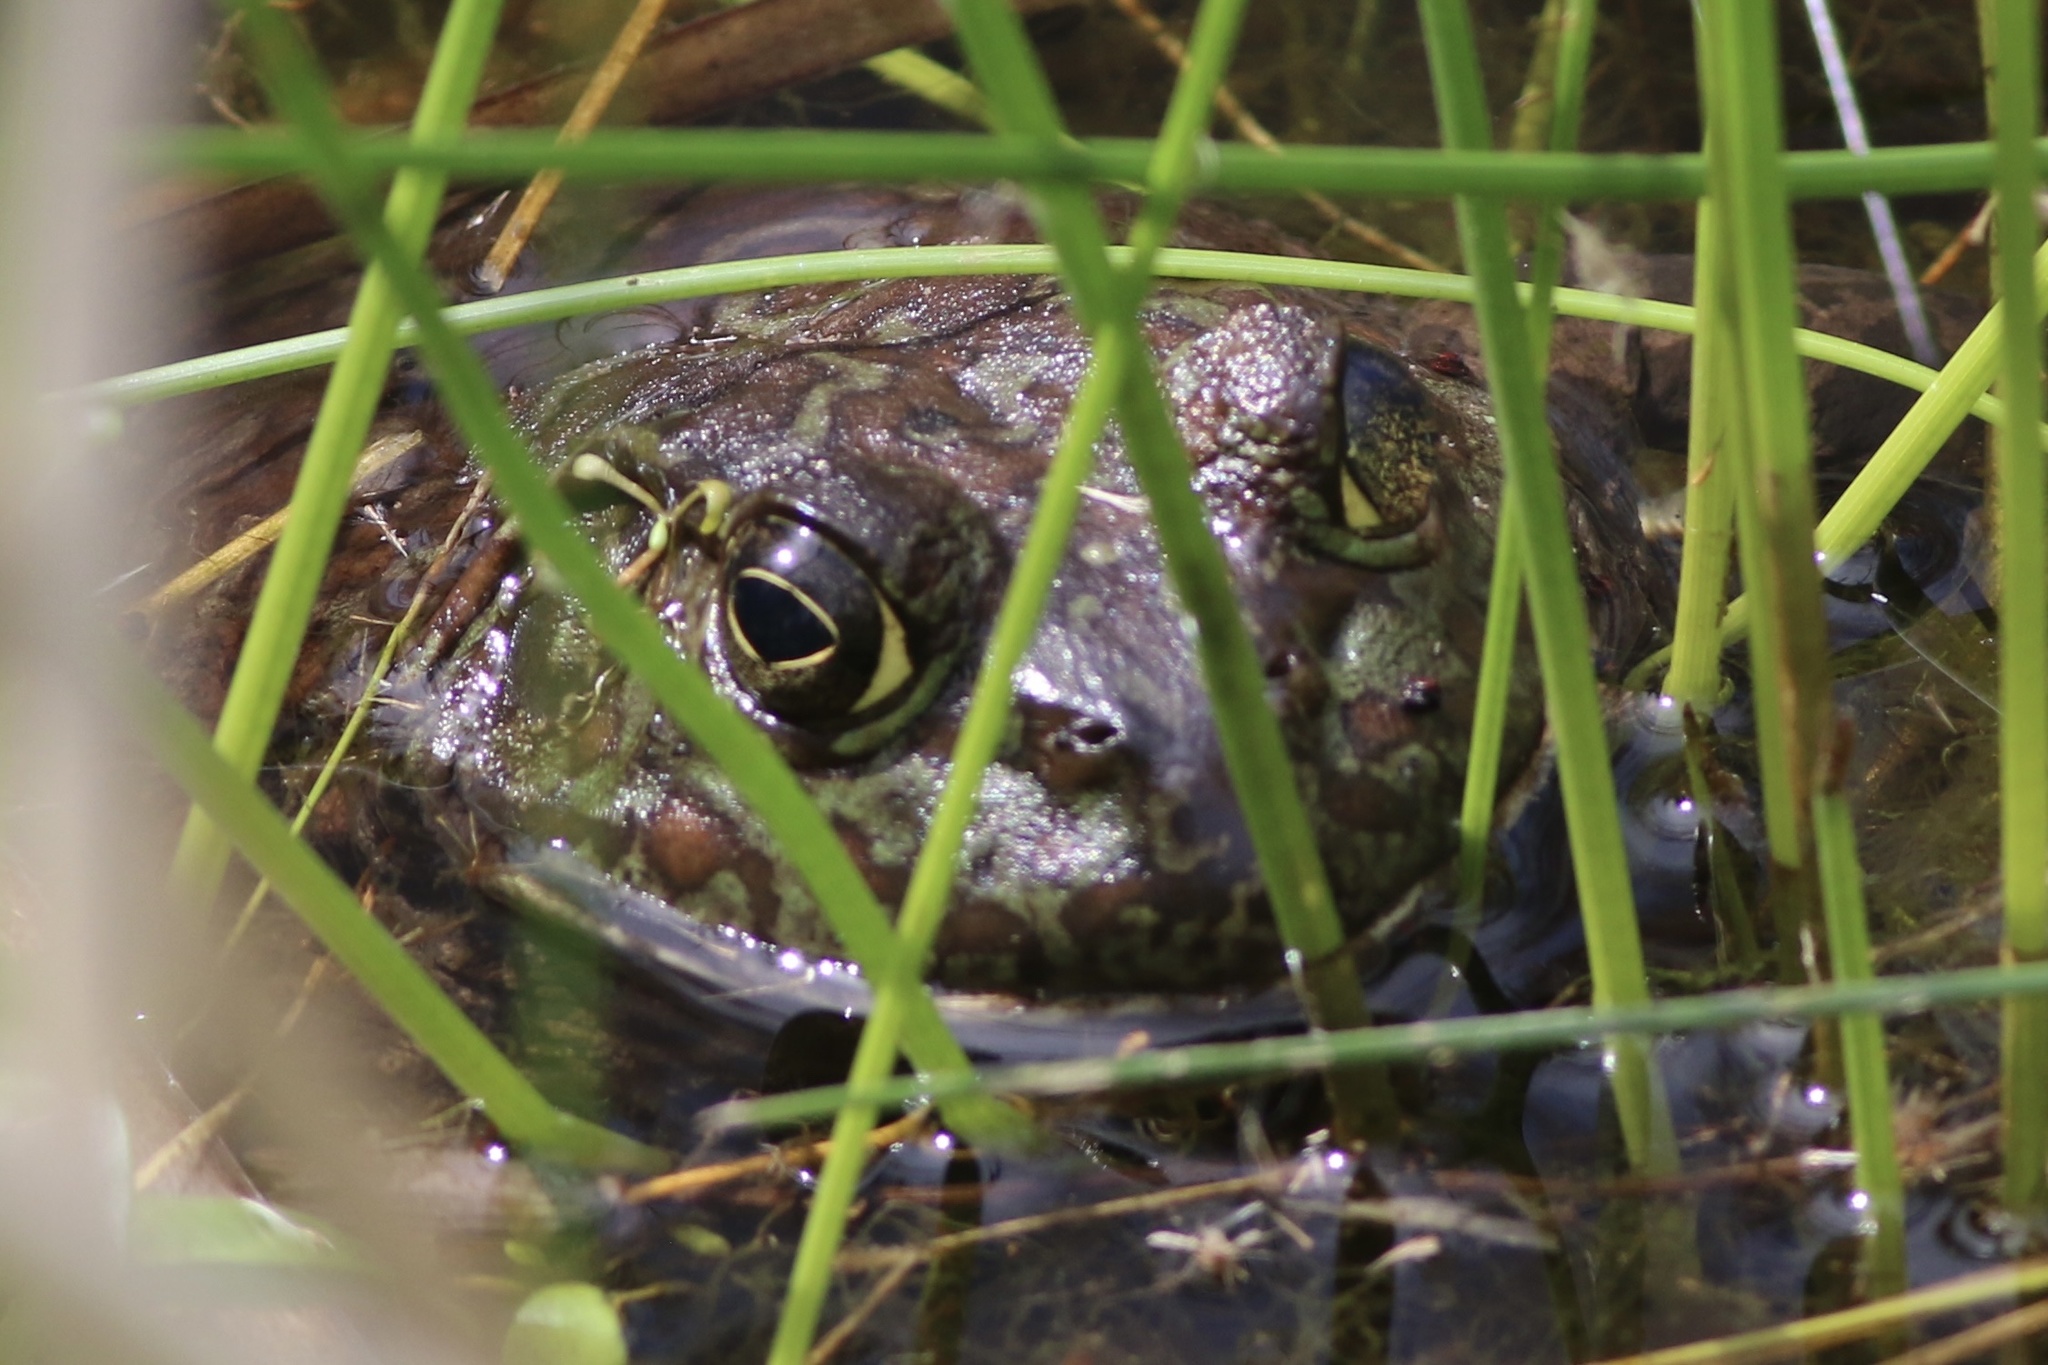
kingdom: Animalia
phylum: Chordata
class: Amphibia
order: Anura
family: Ranidae
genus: Lithobates
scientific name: Lithobates catesbeianus
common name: American bullfrog
